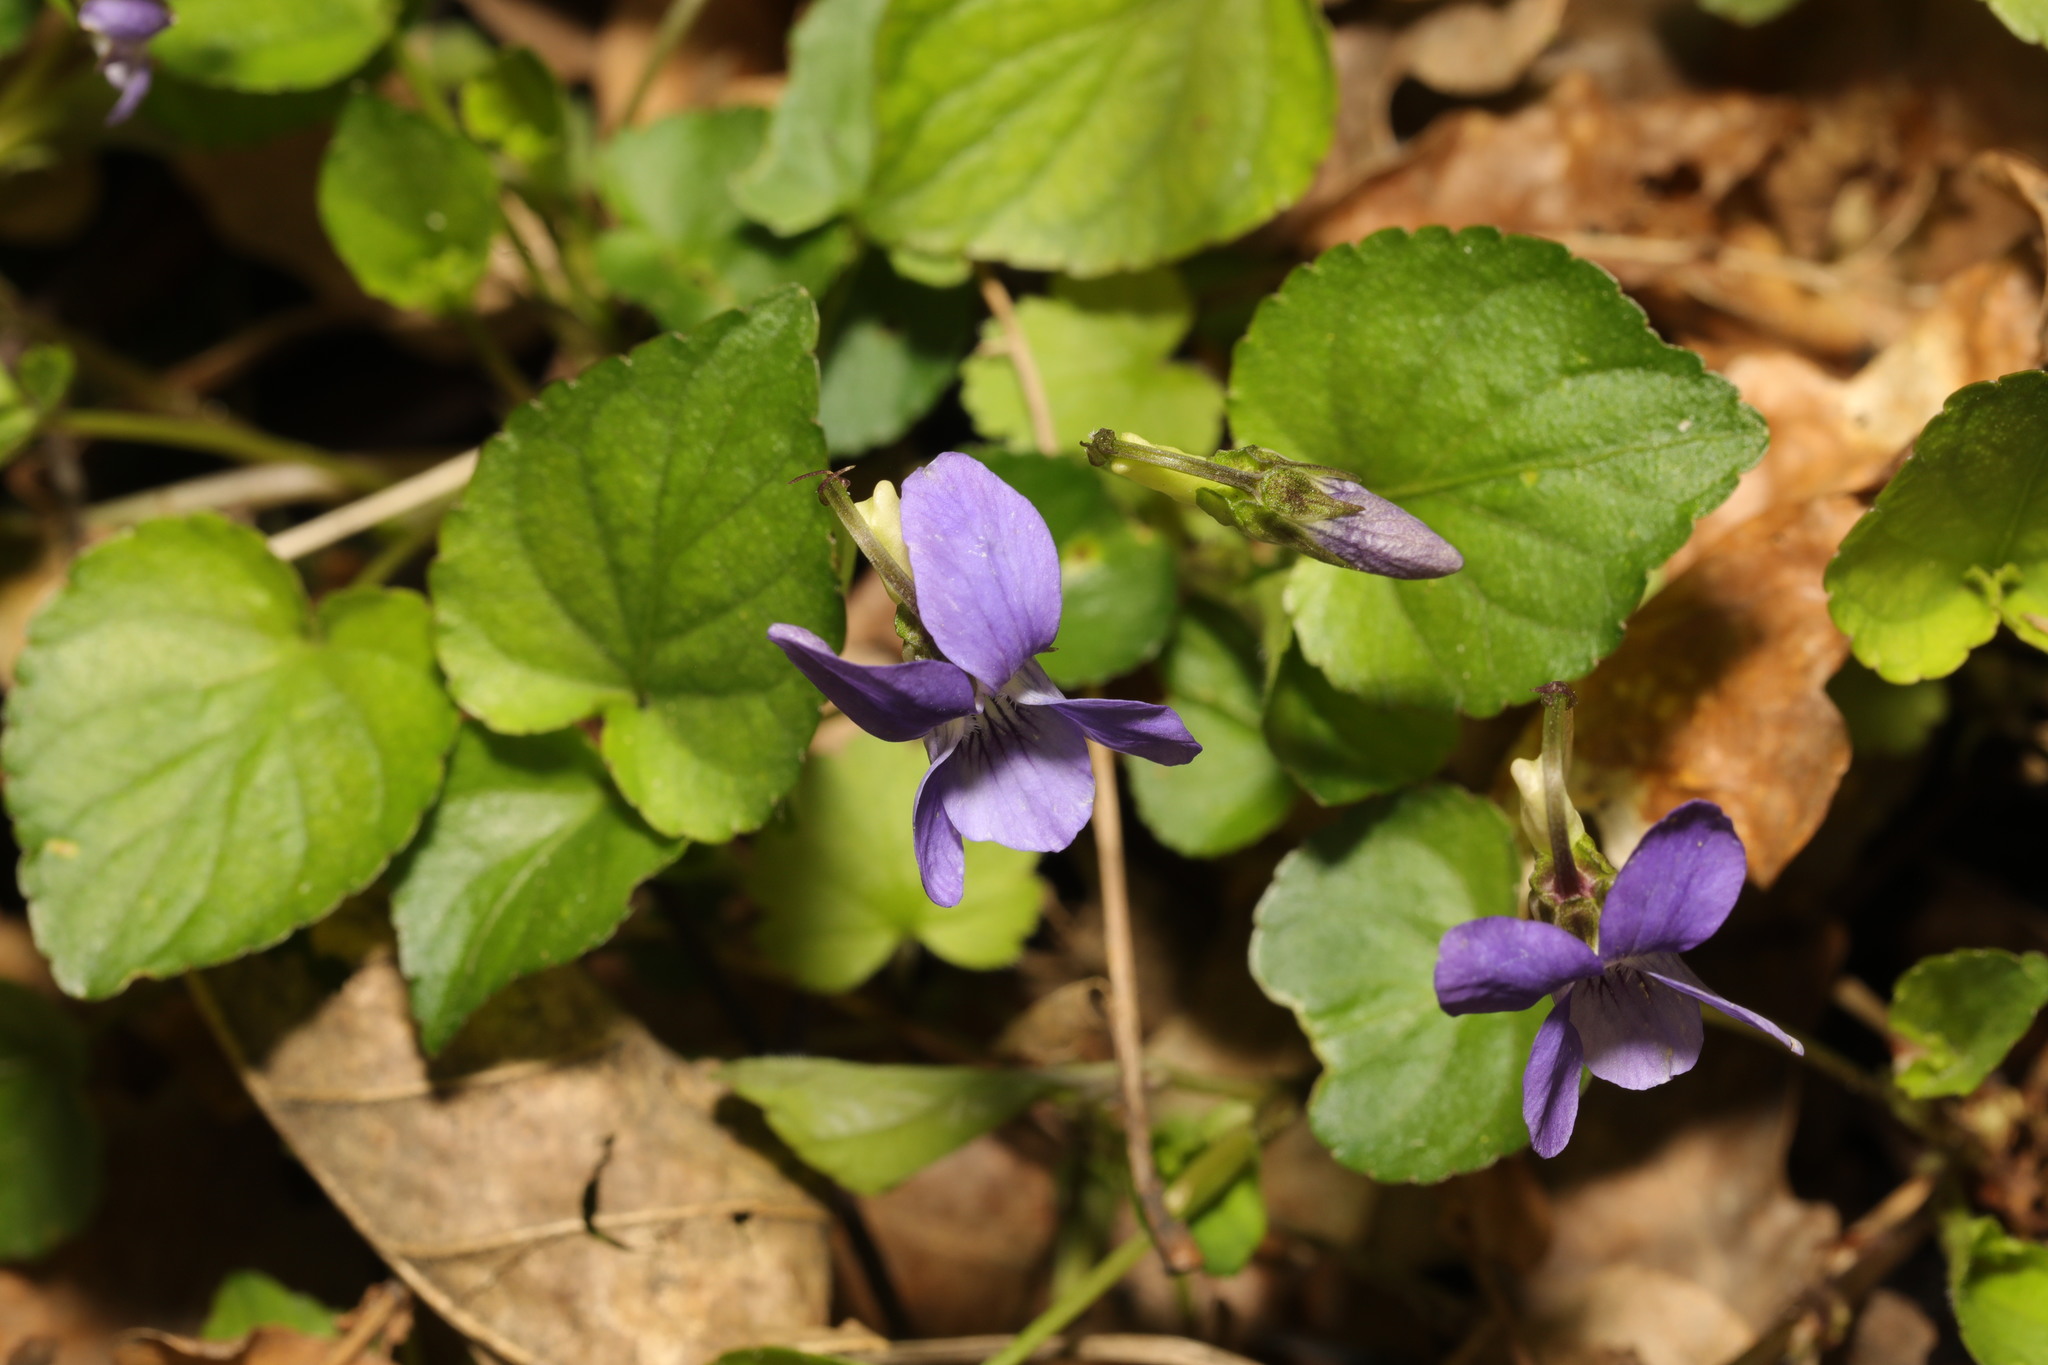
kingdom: Plantae
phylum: Tracheophyta
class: Magnoliopsida
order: Malpighiales
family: Violaceae
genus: Viola
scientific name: Viola riviniana
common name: Common dog-violet
